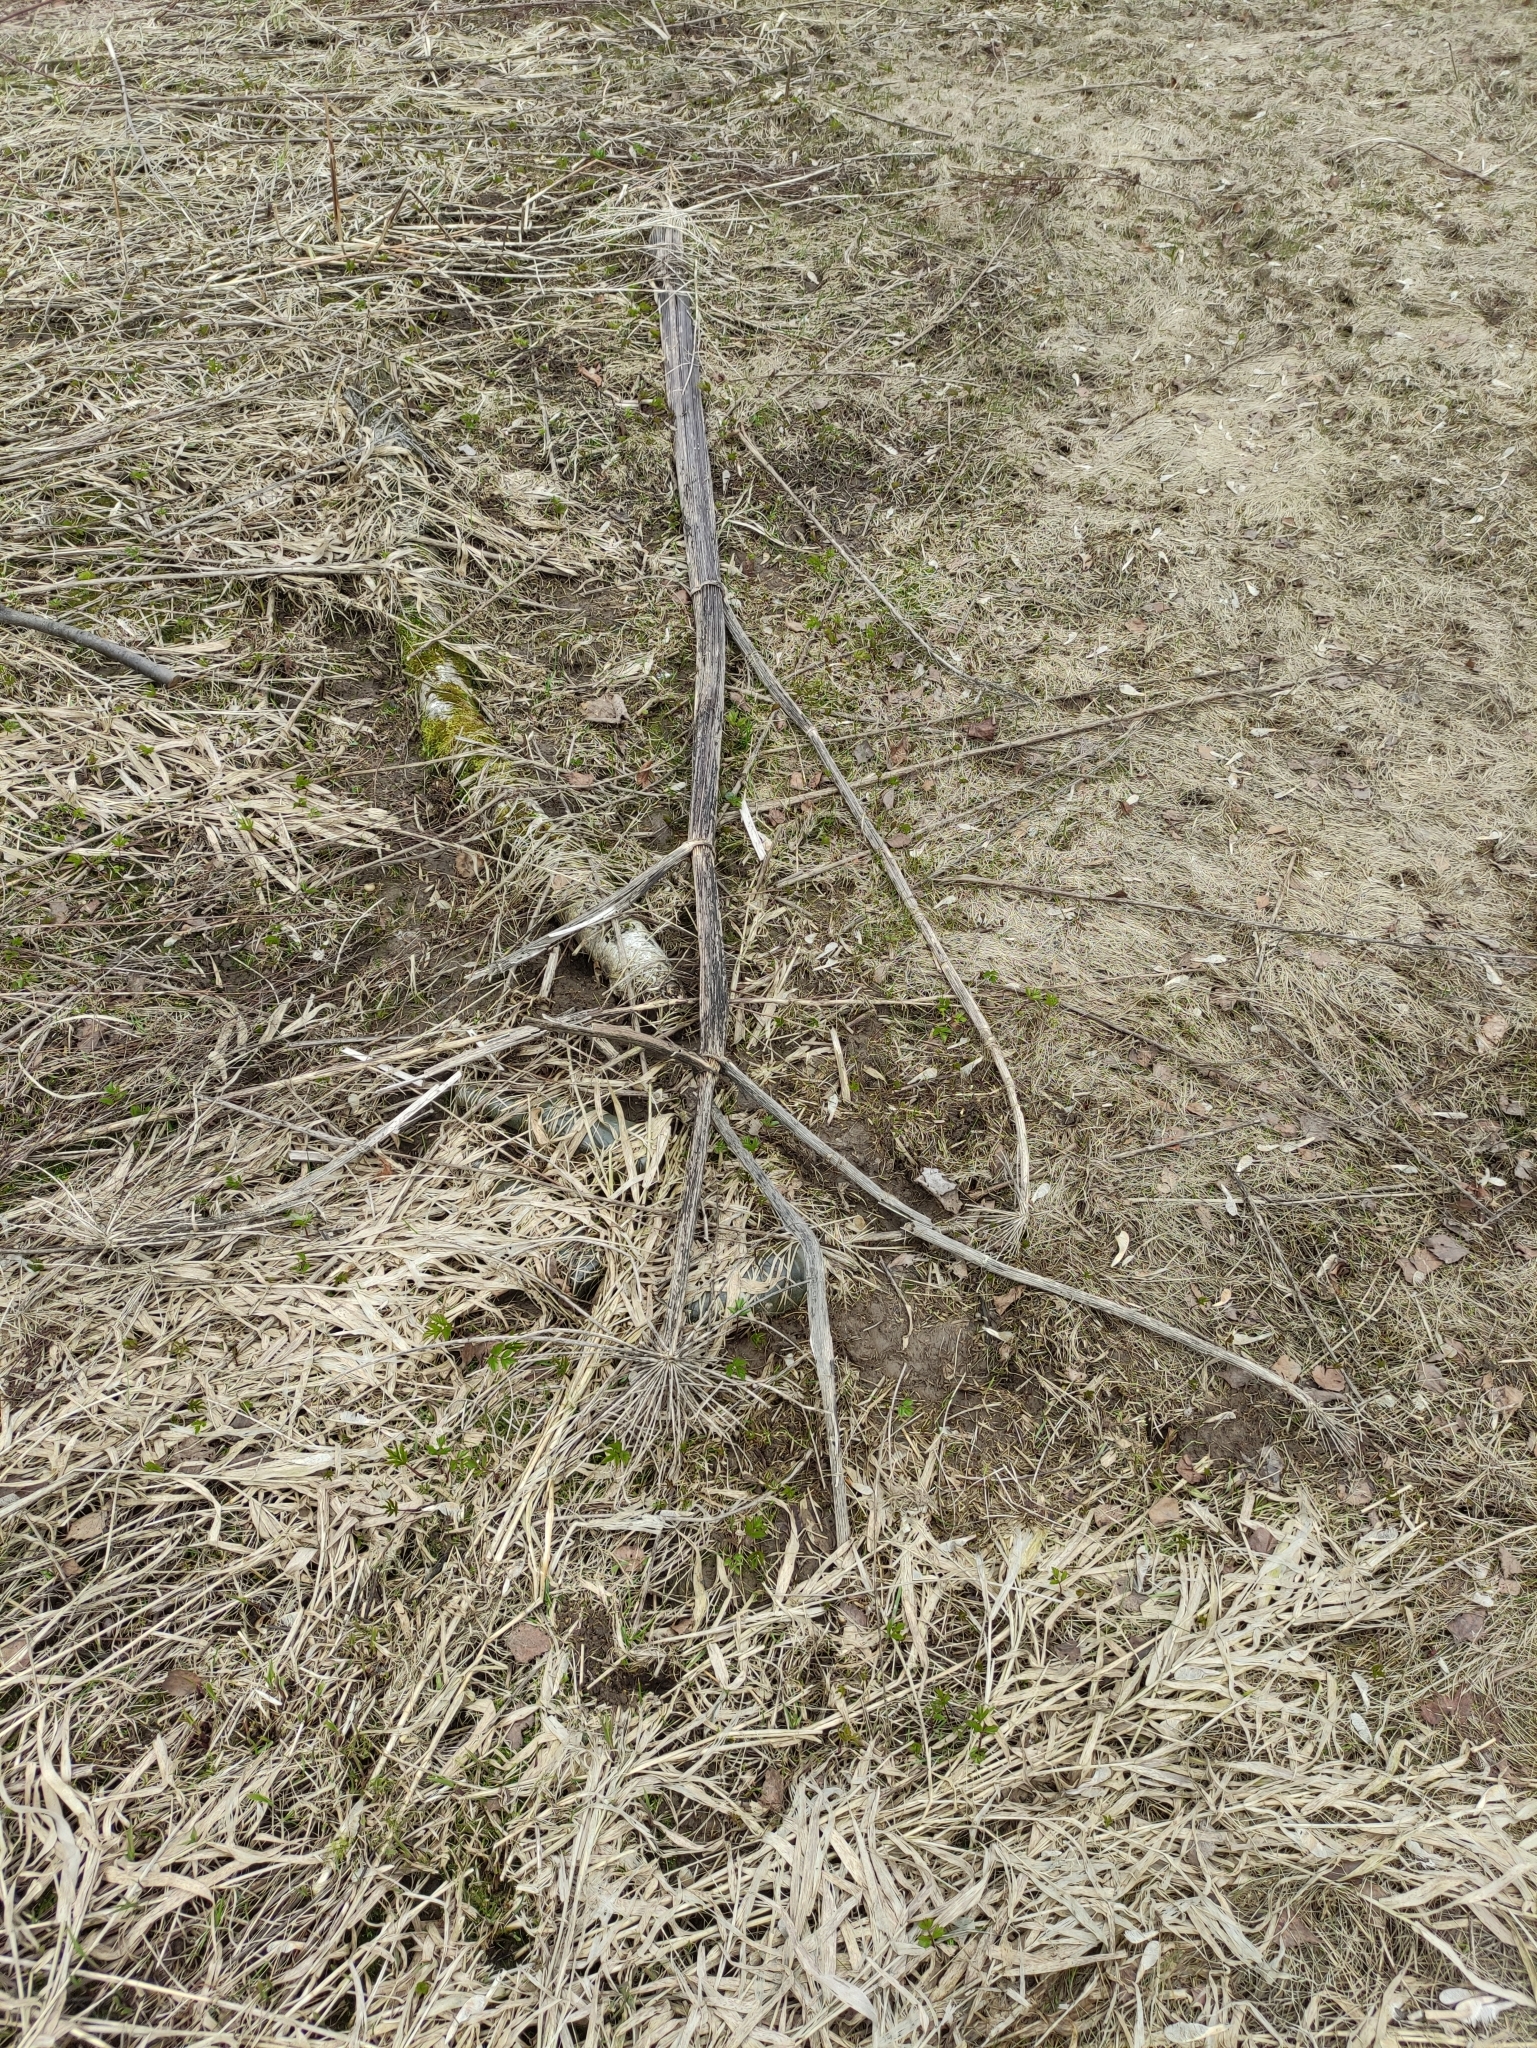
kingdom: Plantae
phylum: Tracheophyta
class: Magnoliopsida
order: Apiales
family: Apiaceae
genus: Heracleum
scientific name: Heracleum sosnowskyi
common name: Sosnowsky's hogweed
